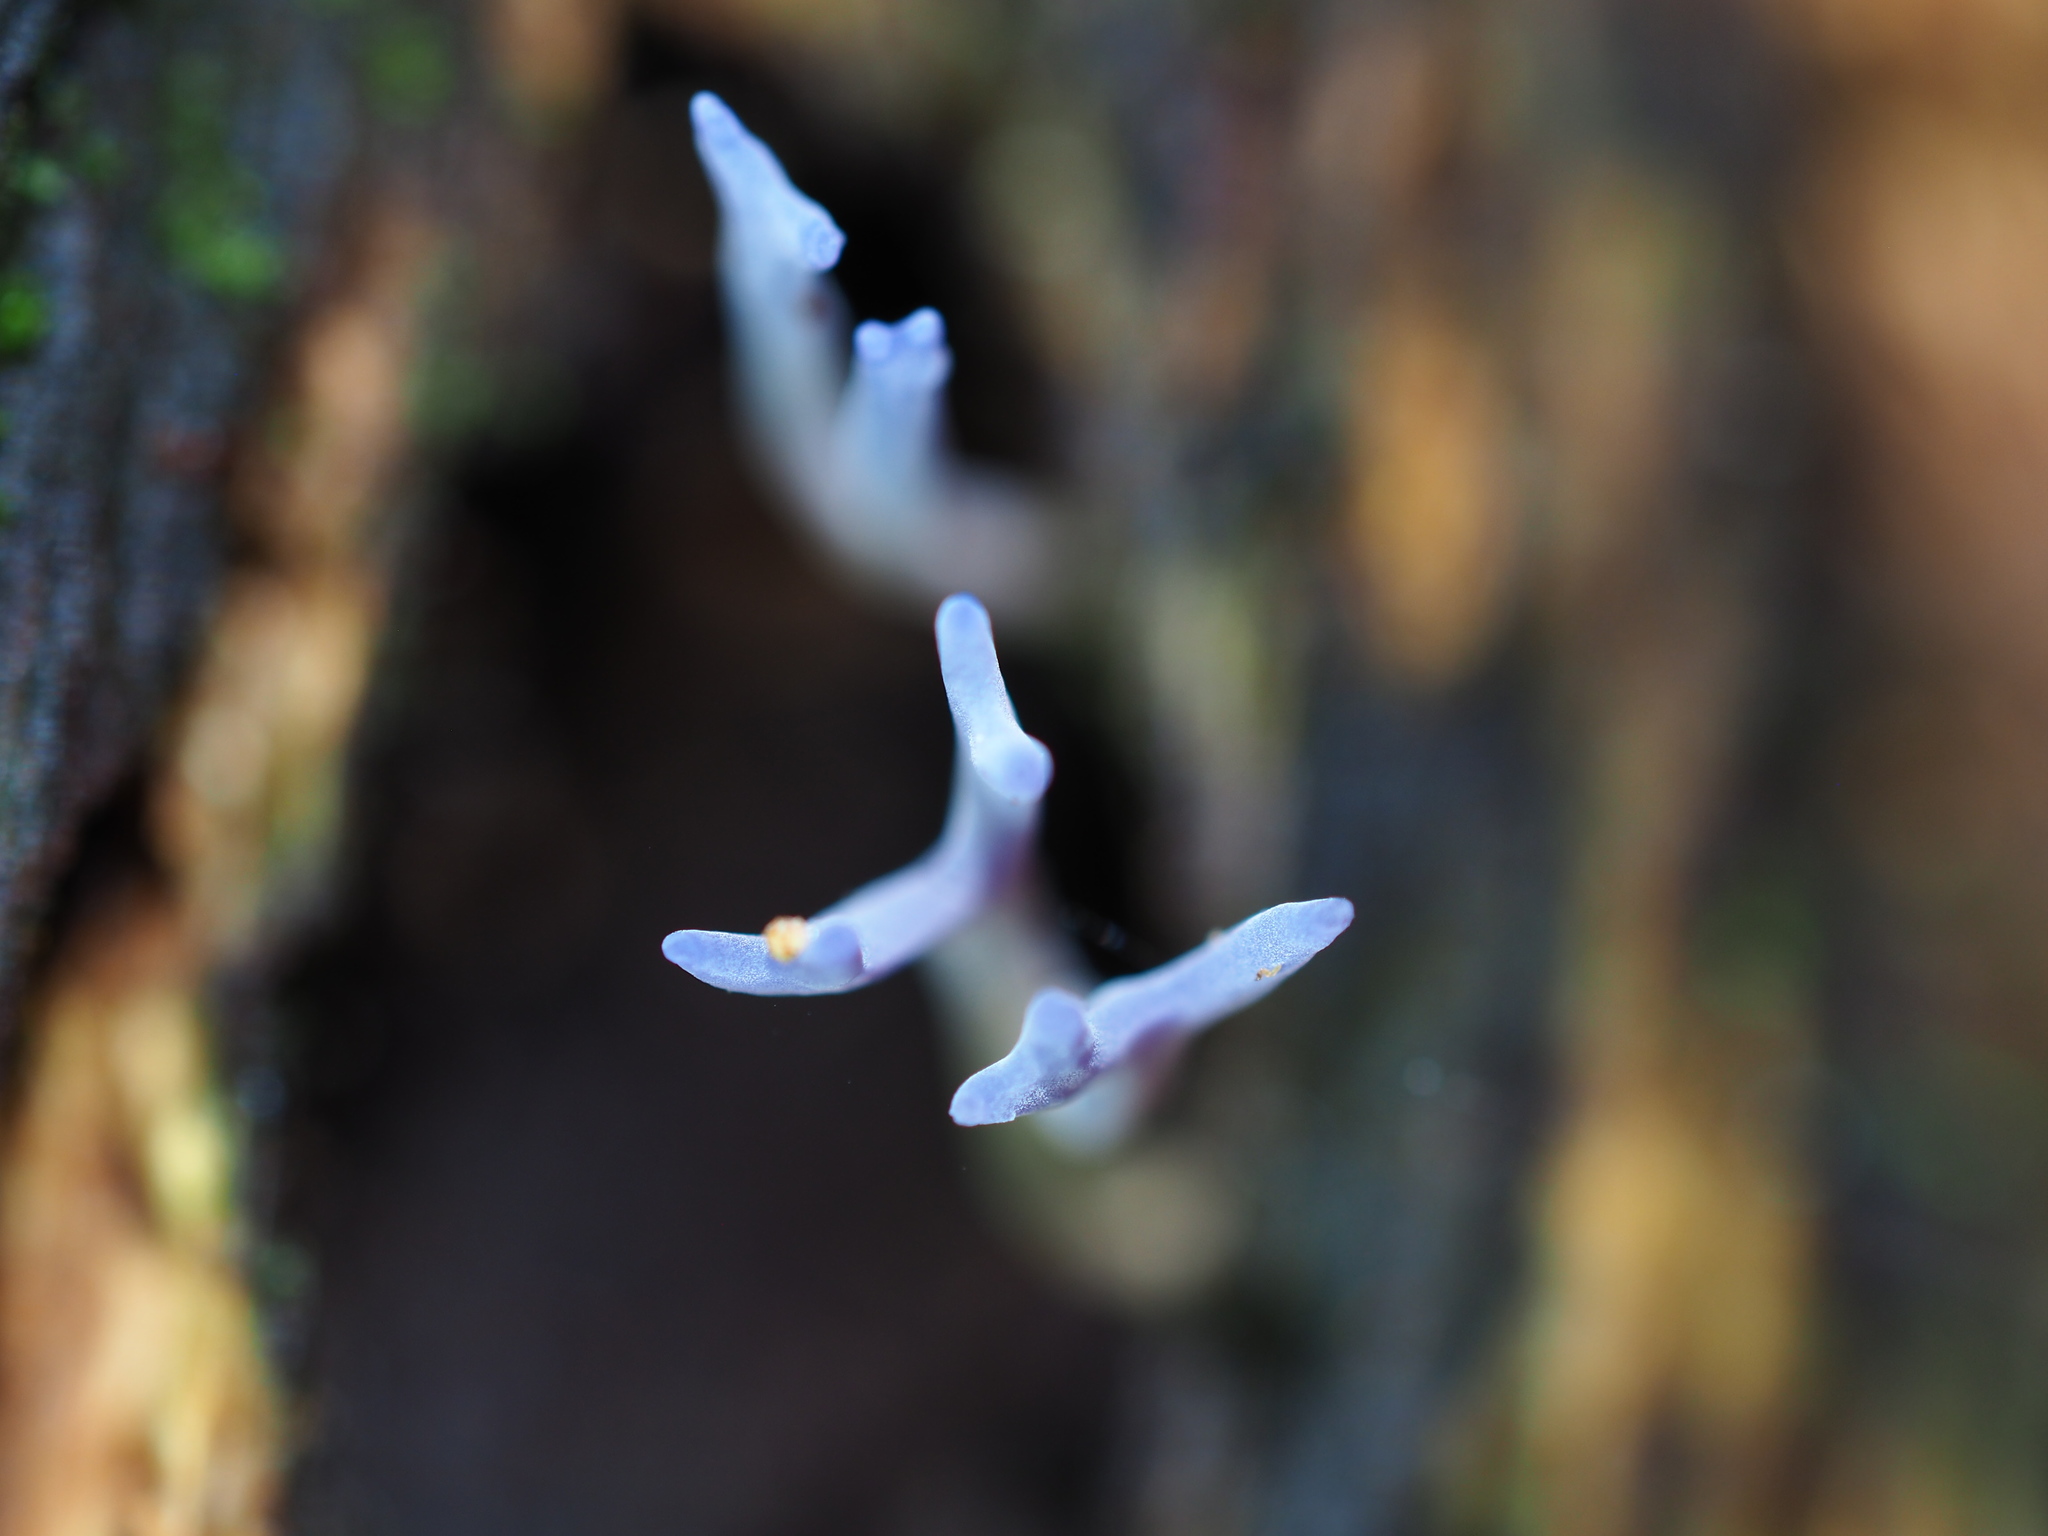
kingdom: Fungi
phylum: Basidiomycota
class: Agaricomycetes
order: Agaricales
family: Clavariaceae
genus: Ramariopsis
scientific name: Ramariopsis pulchella
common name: Lilac coral
